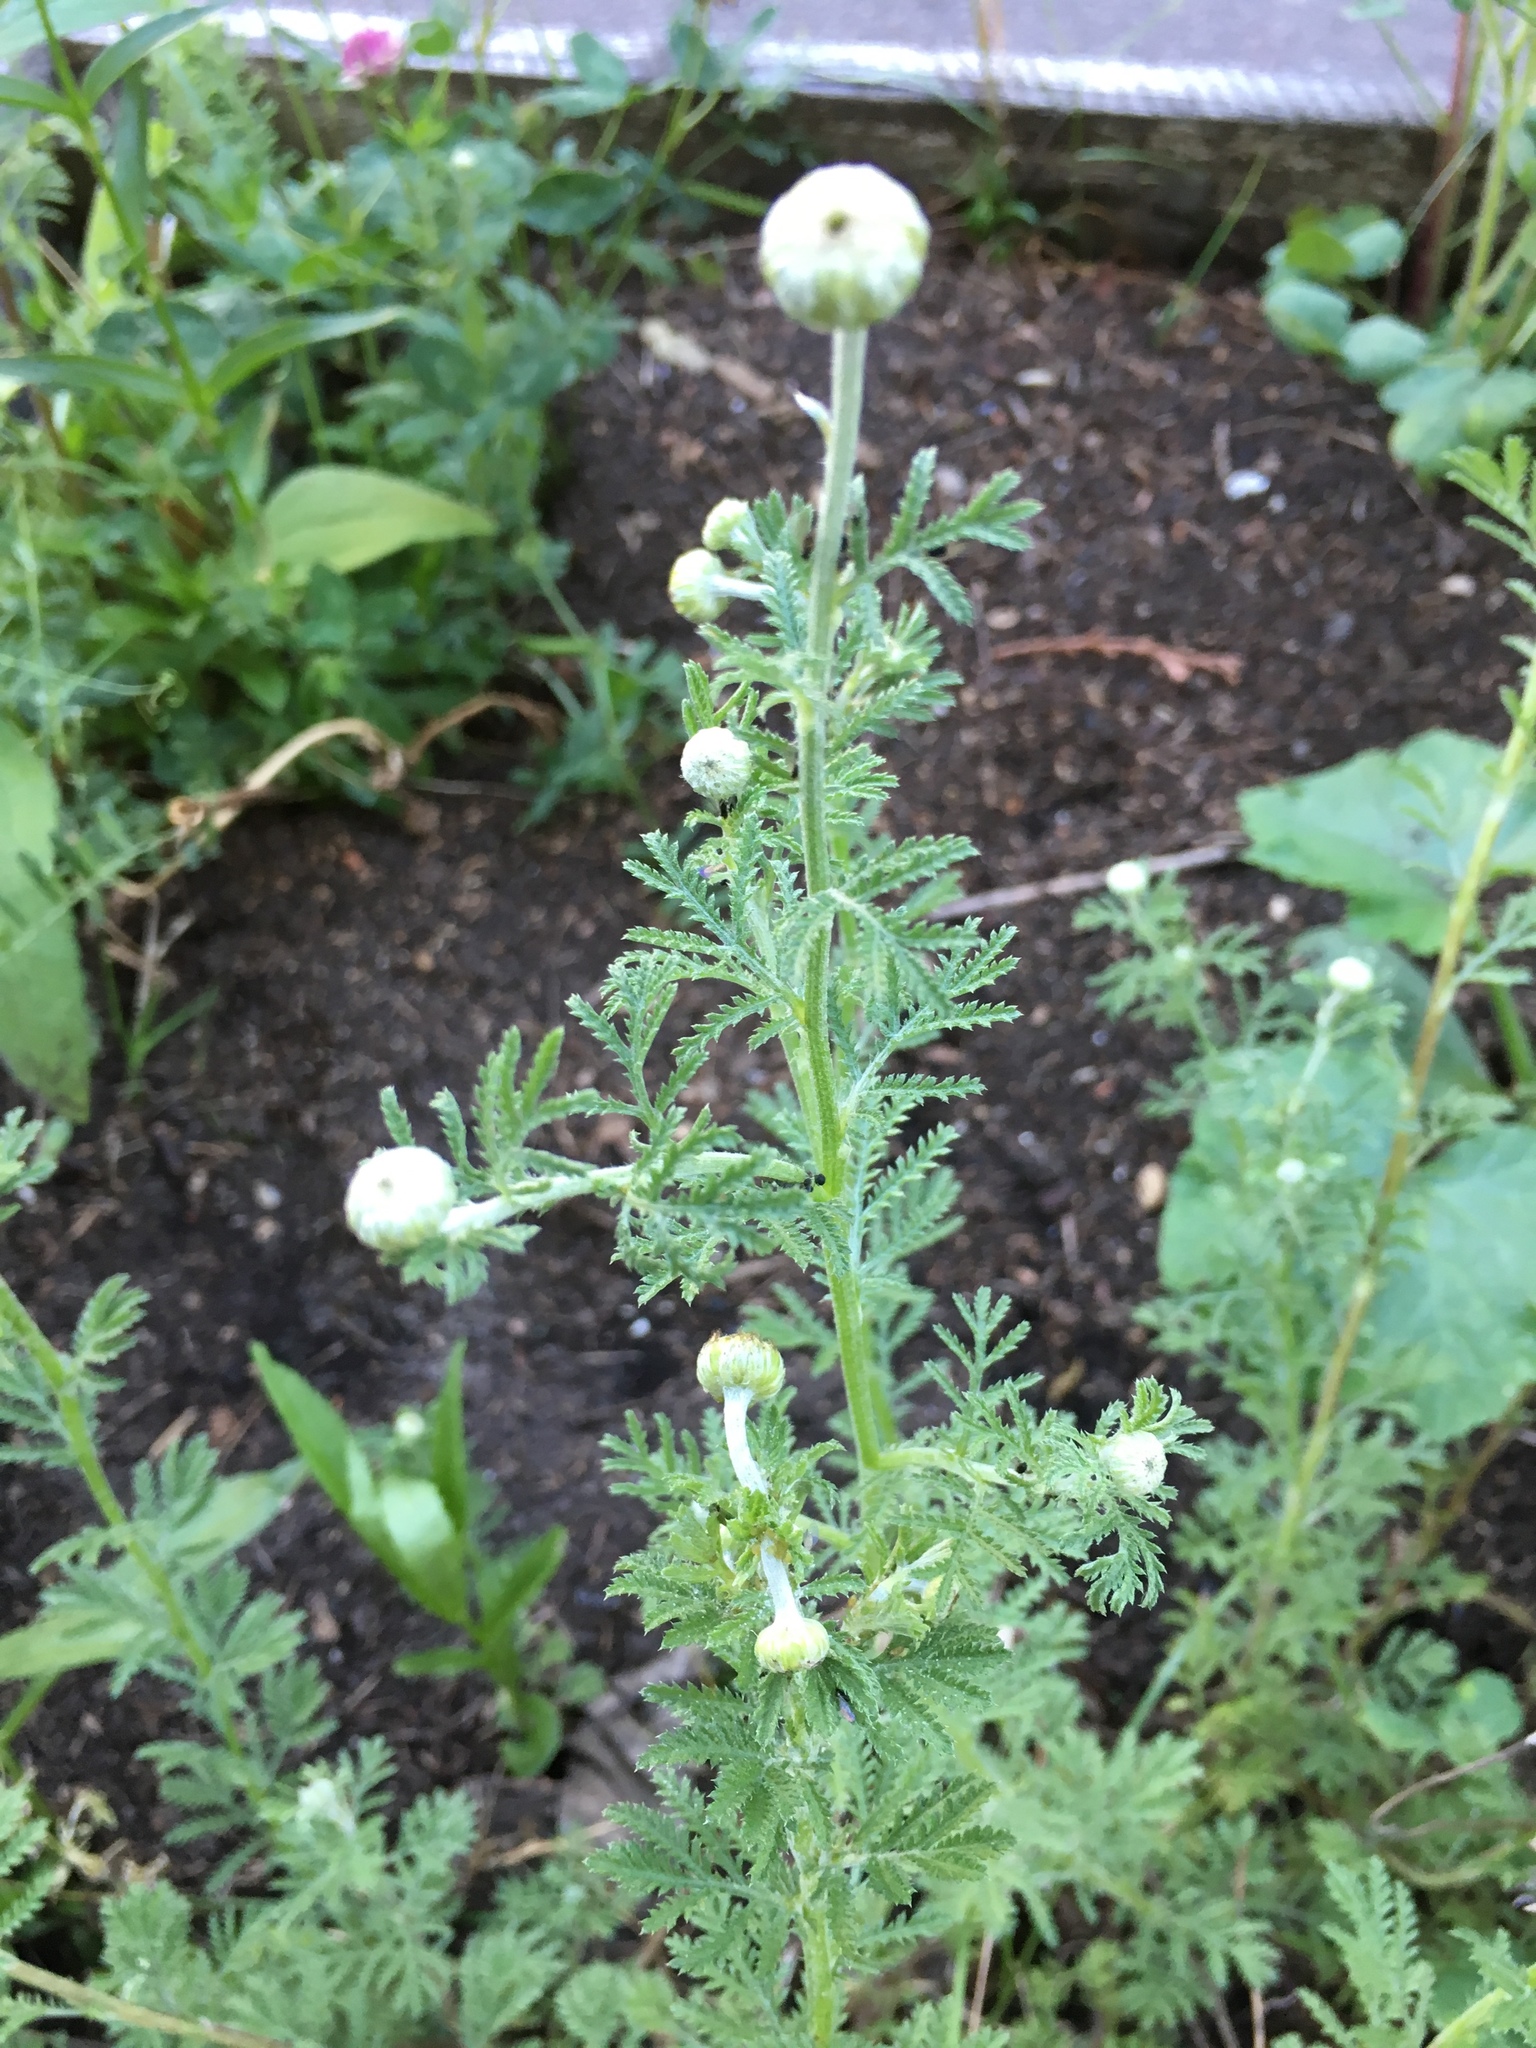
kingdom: Plantae
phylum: Tracheophyta
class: Magnoliopsida
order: Asterales
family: Asteraceae
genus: Cota
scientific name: Cota austriaca
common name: Austrian chamomile
